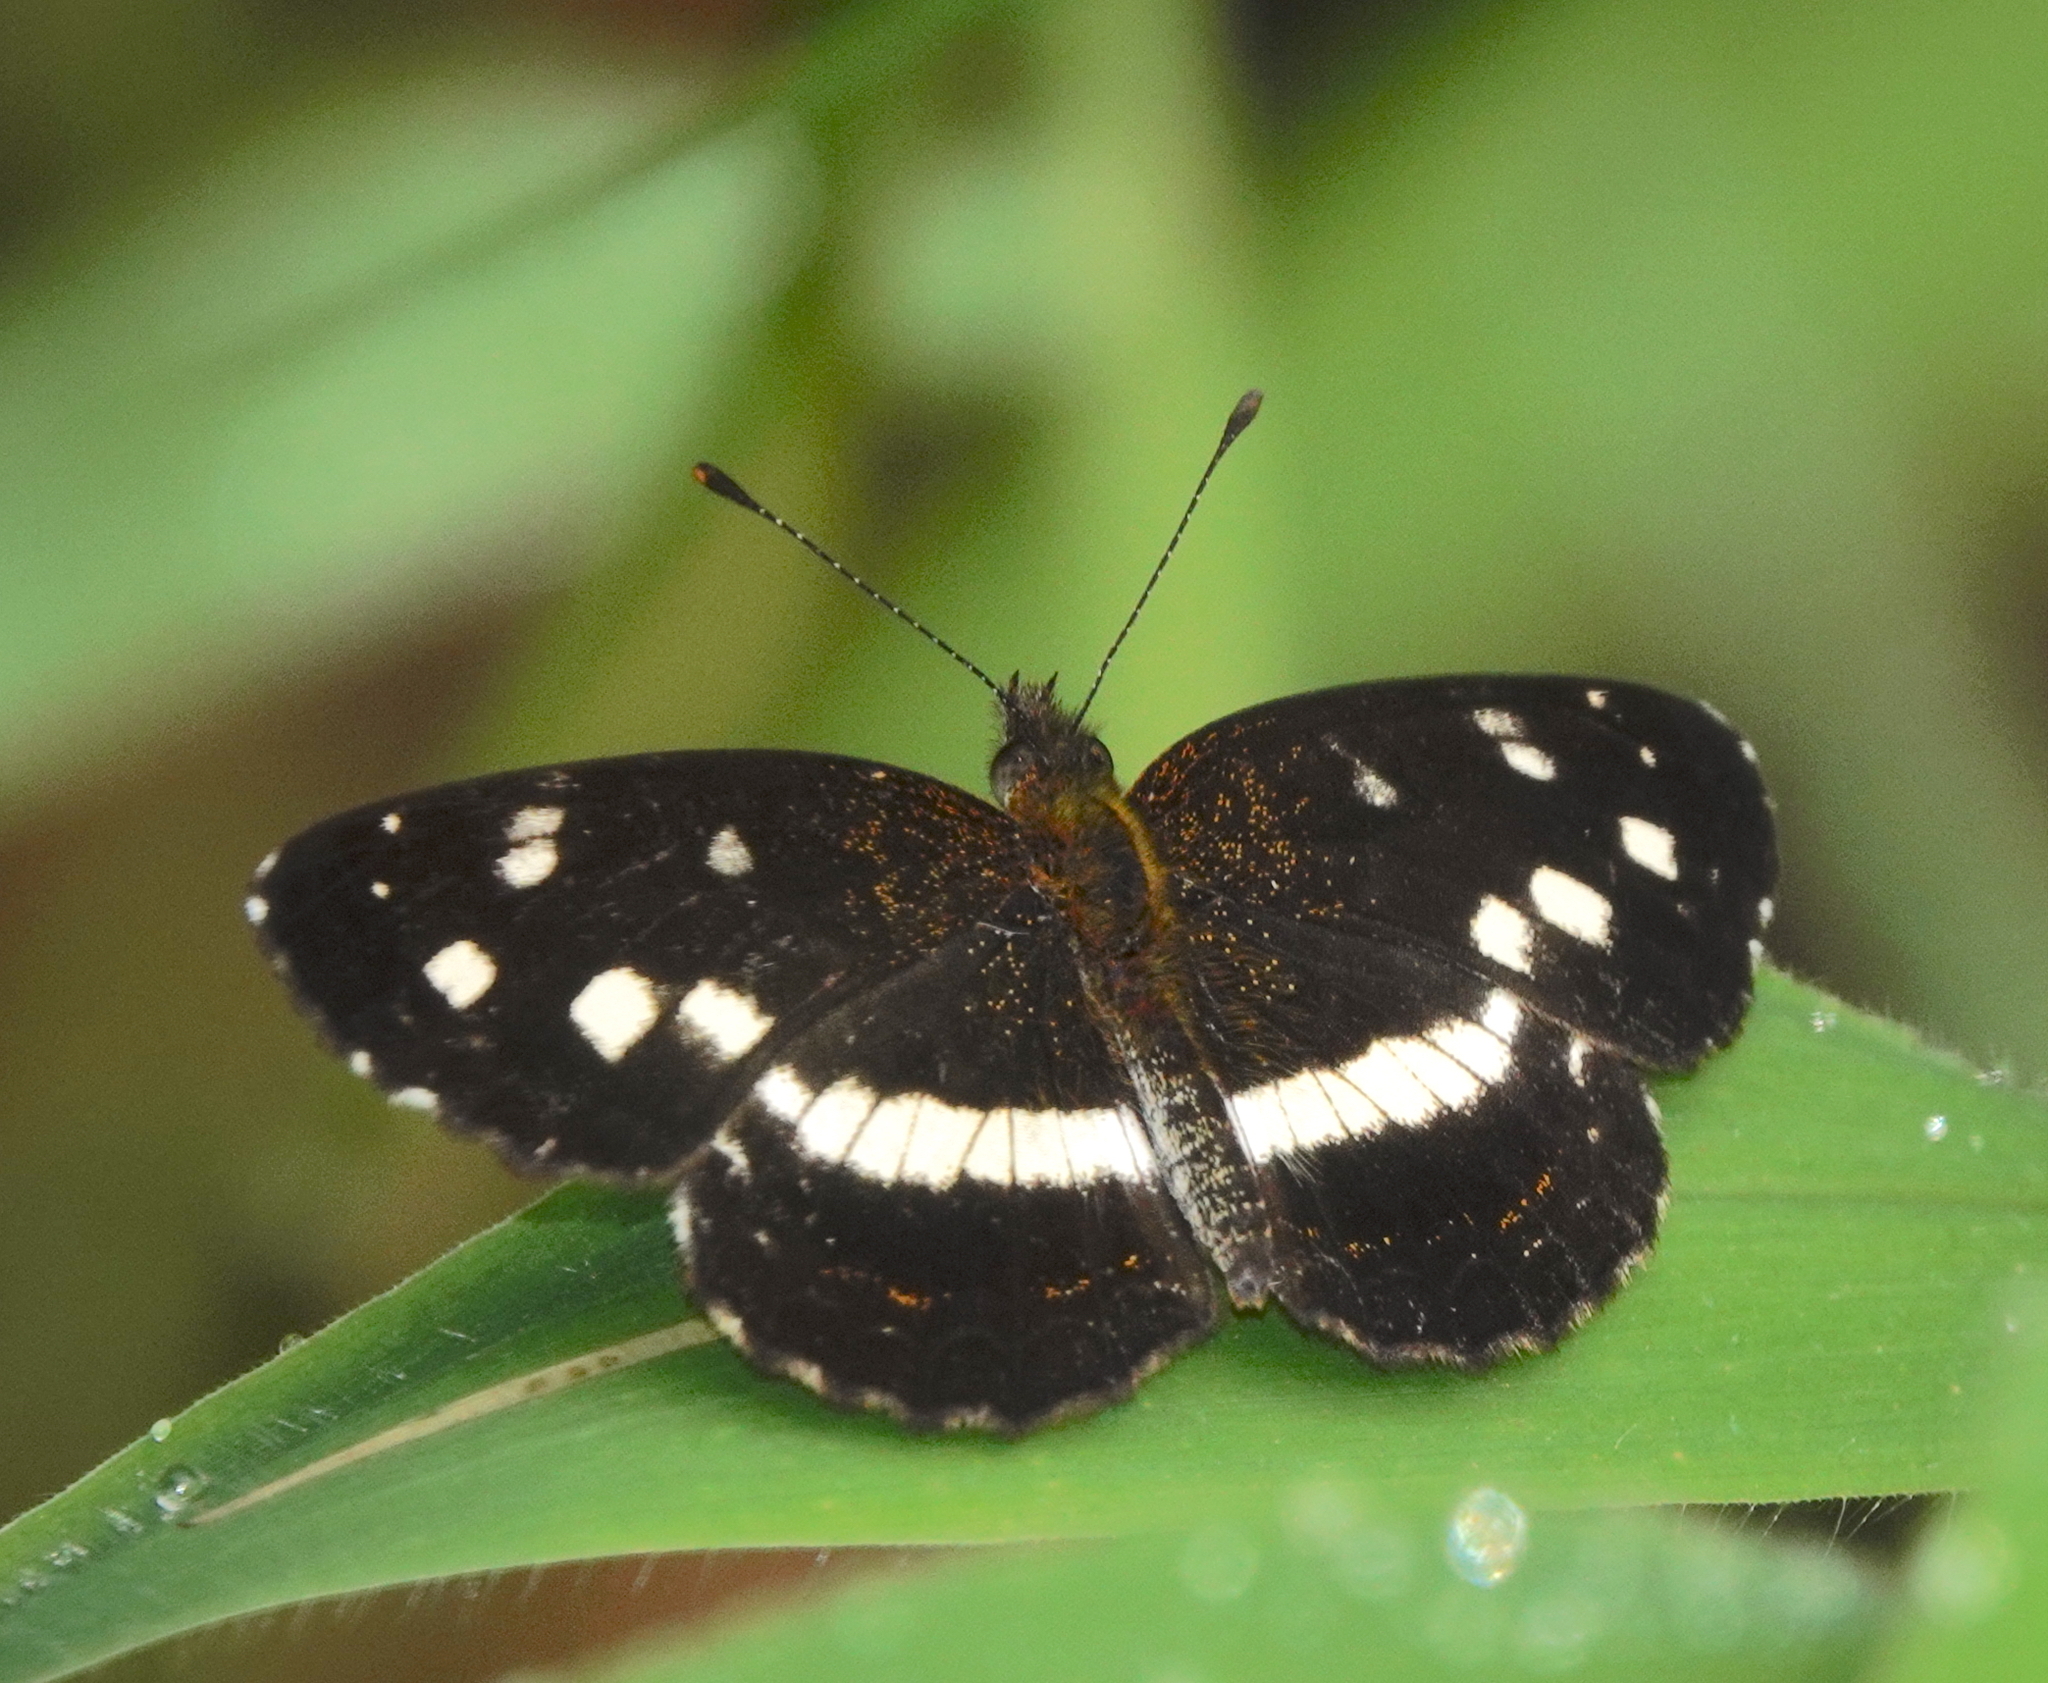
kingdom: Animalia
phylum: Arthropoda
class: Insecta
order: Lepidoptera
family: Nymphalidae
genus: Janatella
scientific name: Janatella fellula
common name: Colombian crescent
